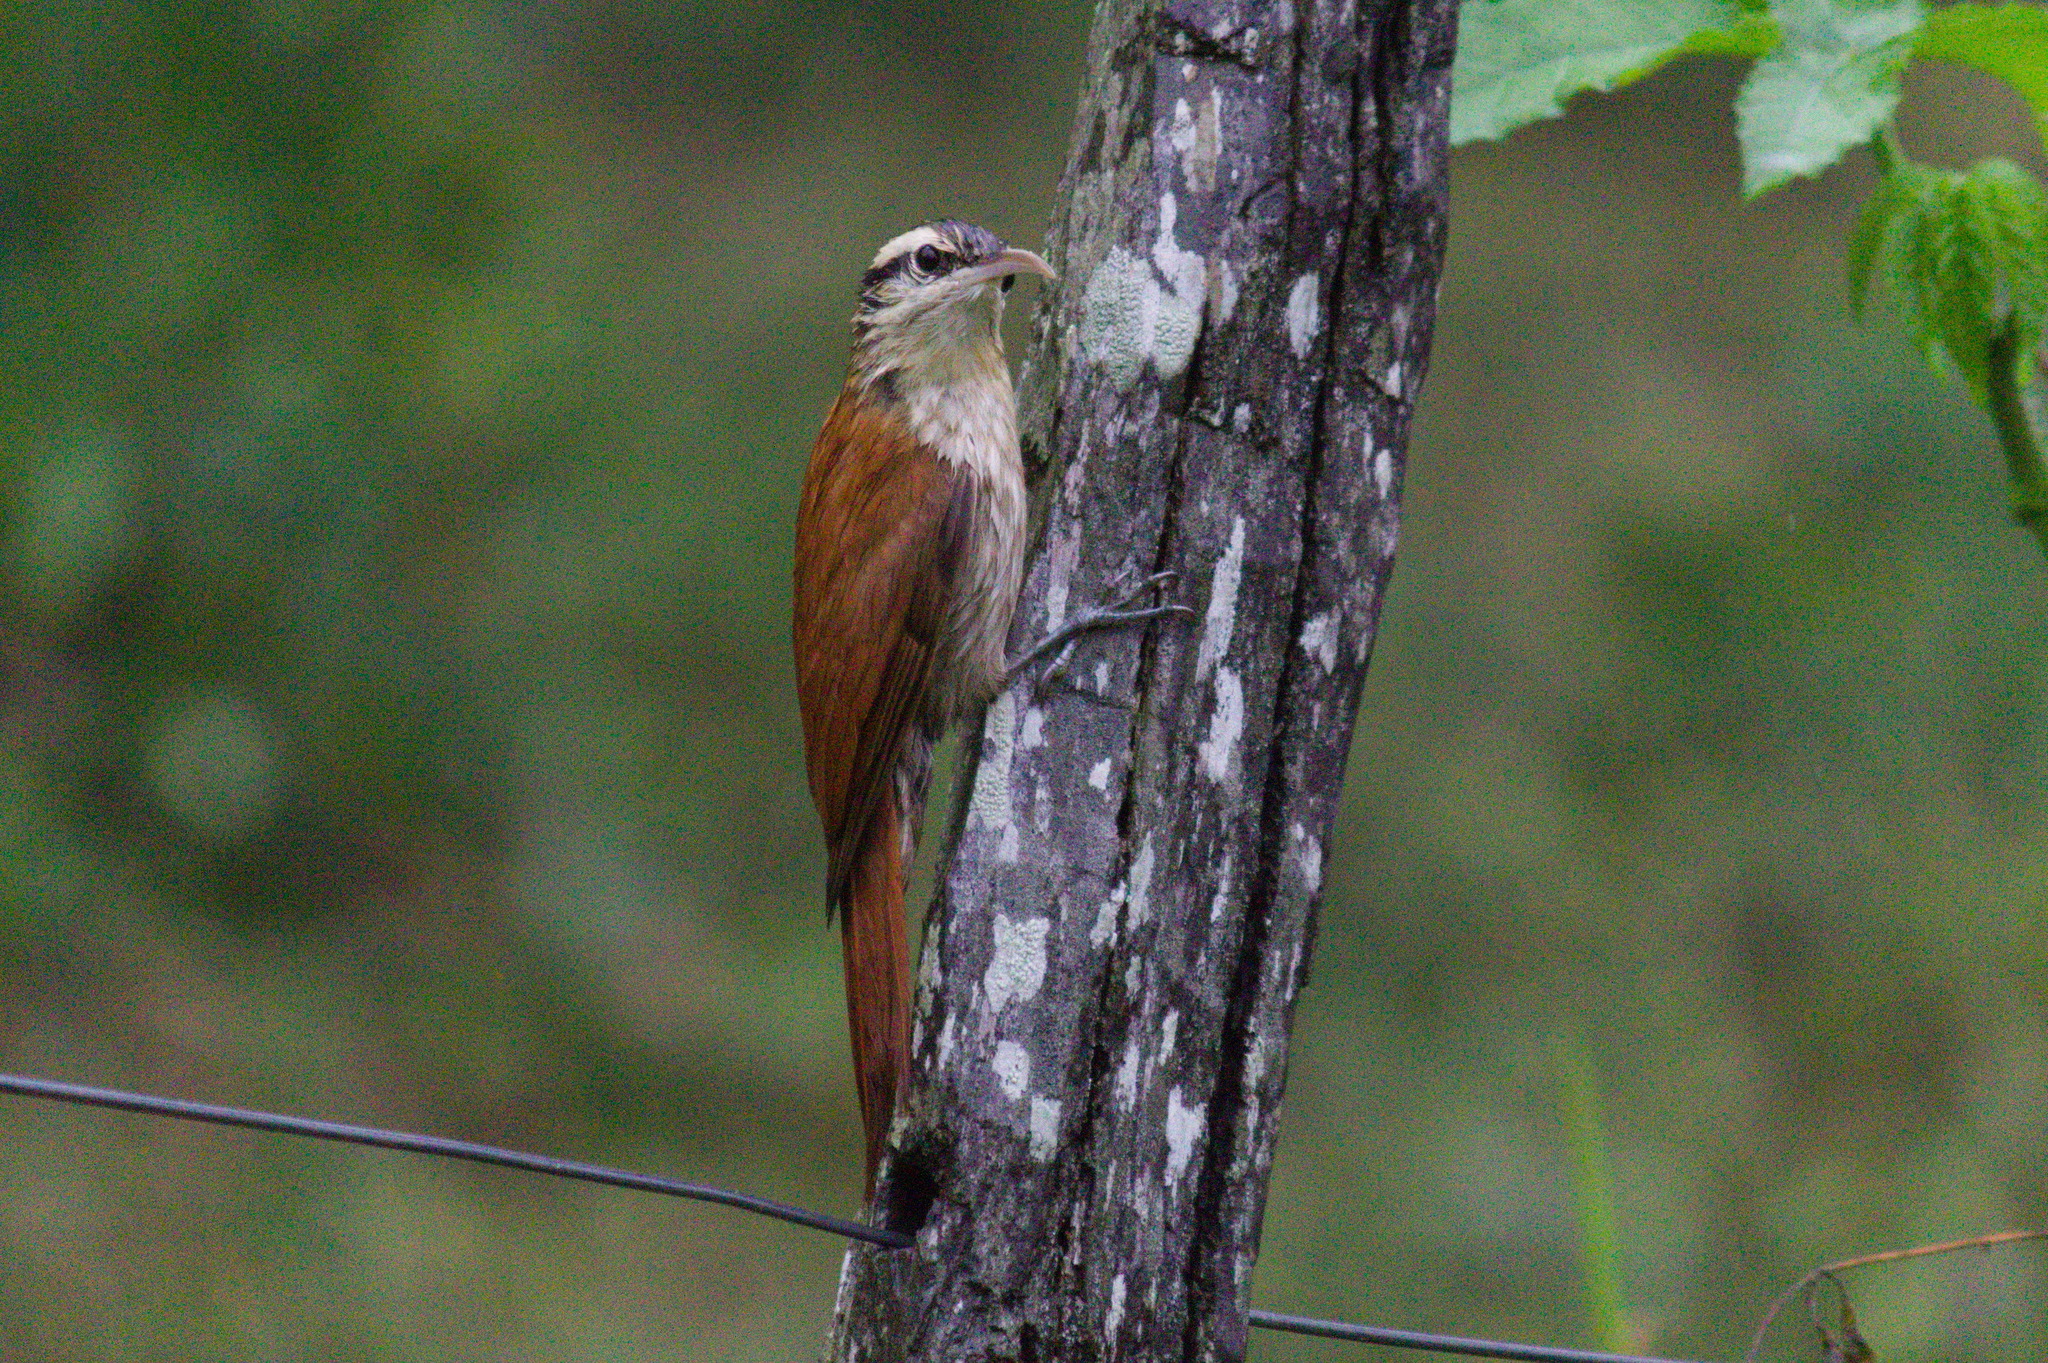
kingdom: Animalia
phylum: Chordata
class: Aves
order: Passeriformes
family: Furnariidae
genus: Lepidocolaptes
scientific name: Lepidocolaptes angustirostris
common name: Narrow-billed woodcreeper
